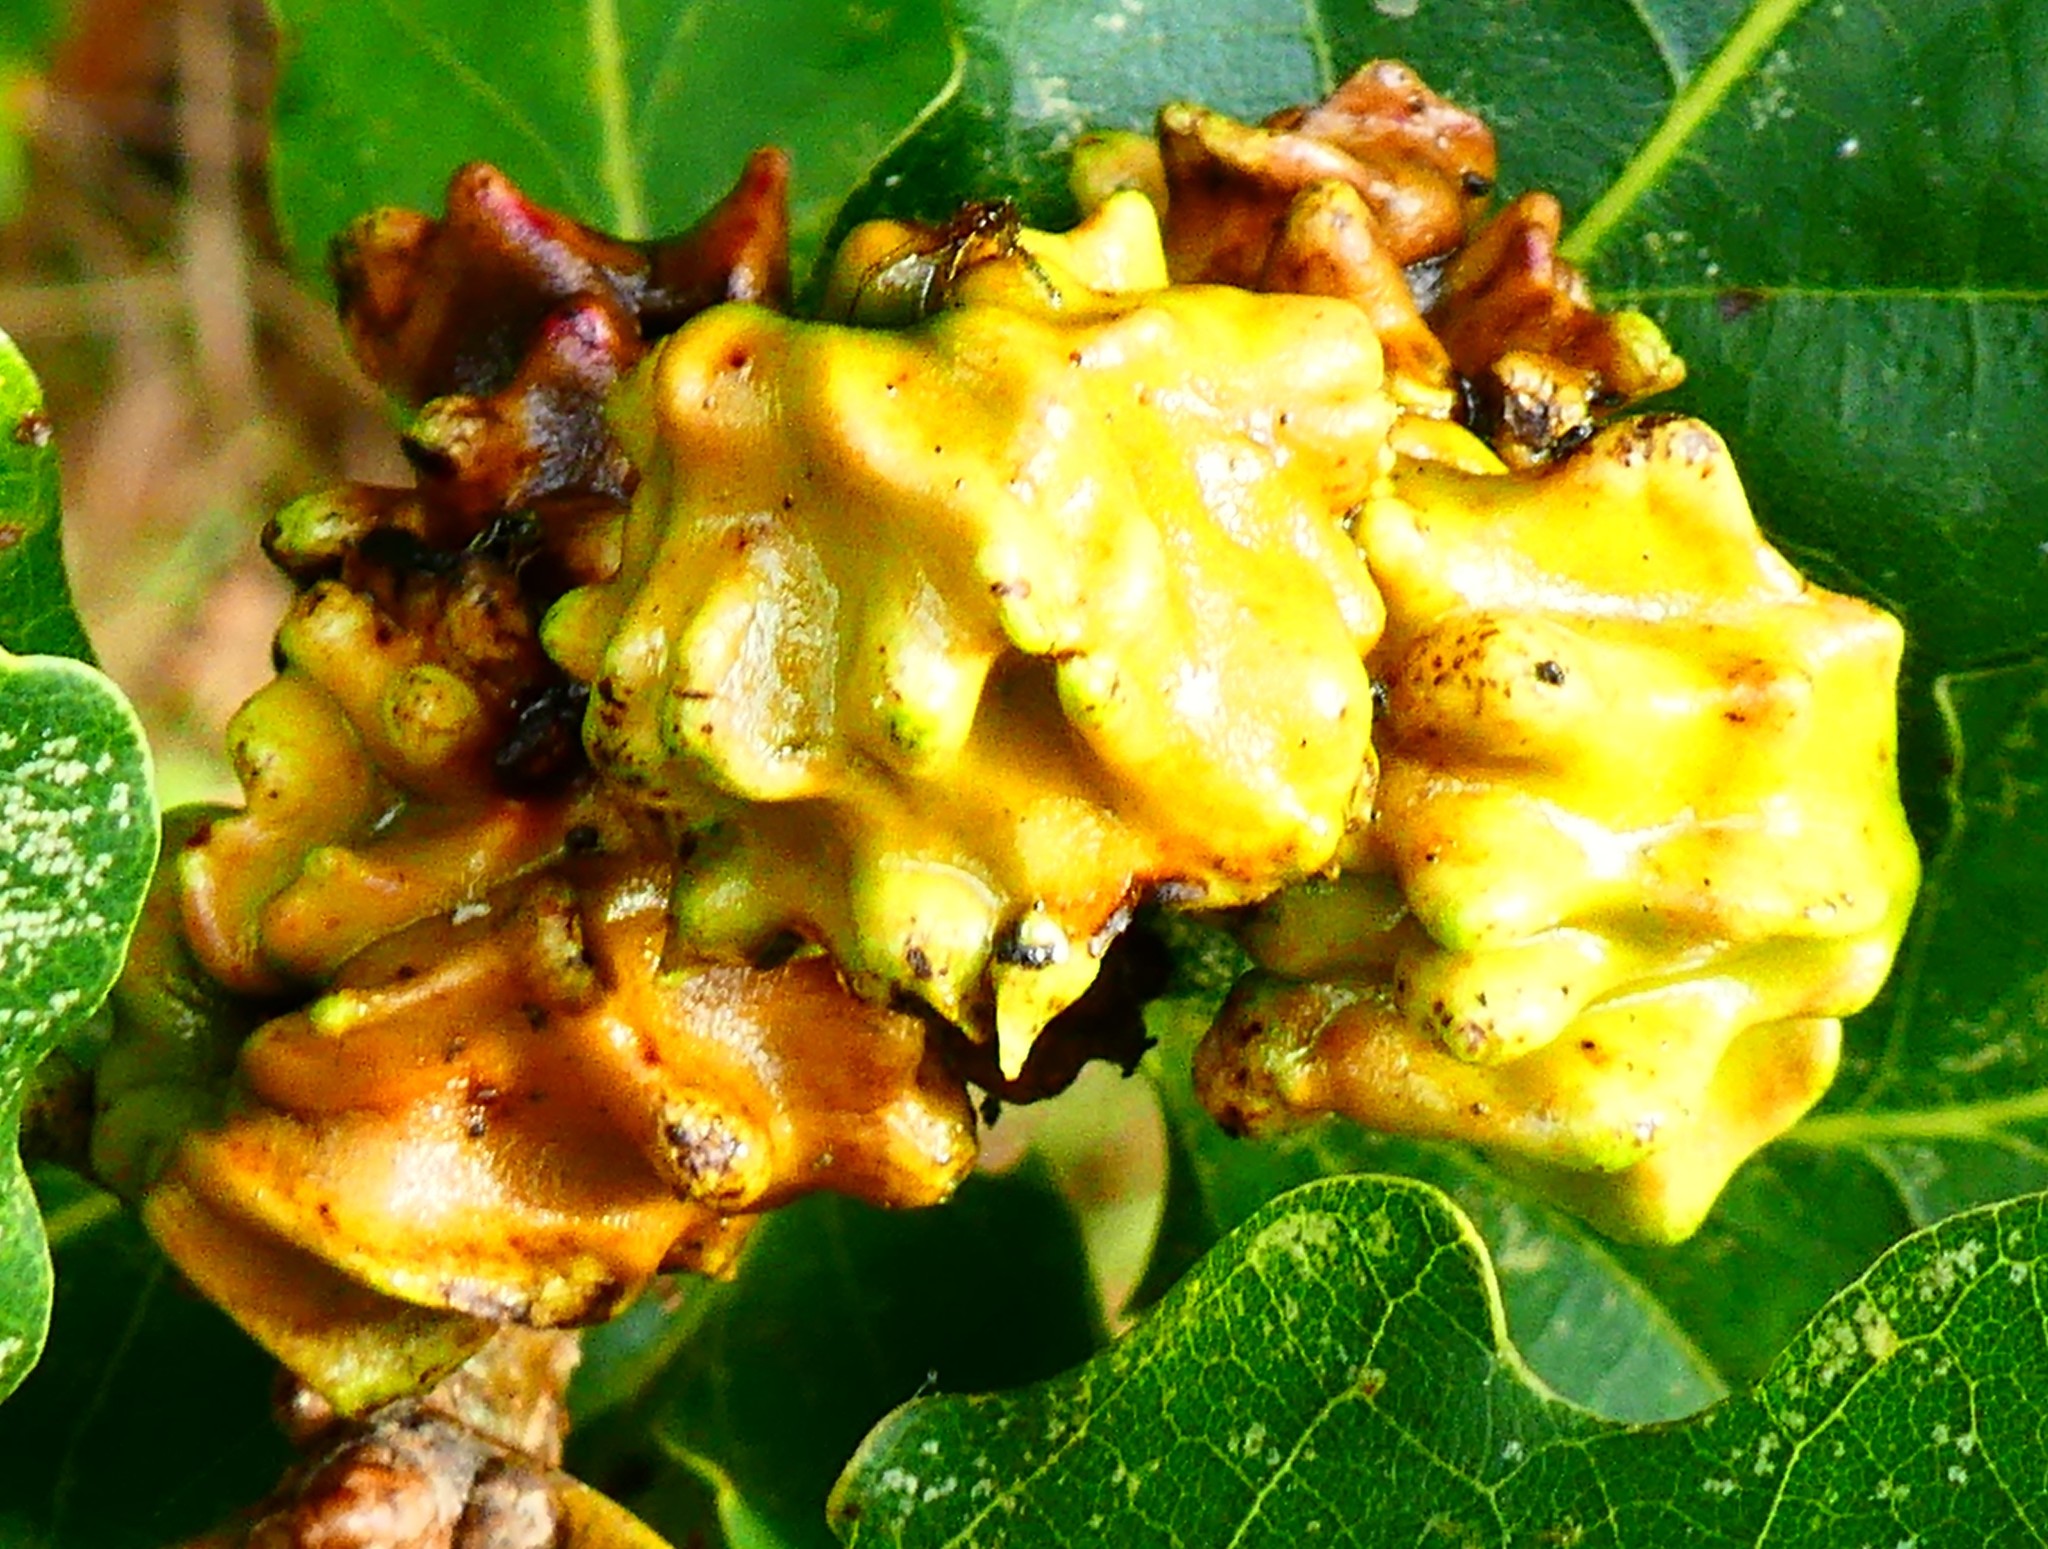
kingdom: Animalia
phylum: Arthropoda
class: Insecta
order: Hymenoptera
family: Cynipidae
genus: Andricus
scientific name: Andricus quercuscalicis
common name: Knopper gall
